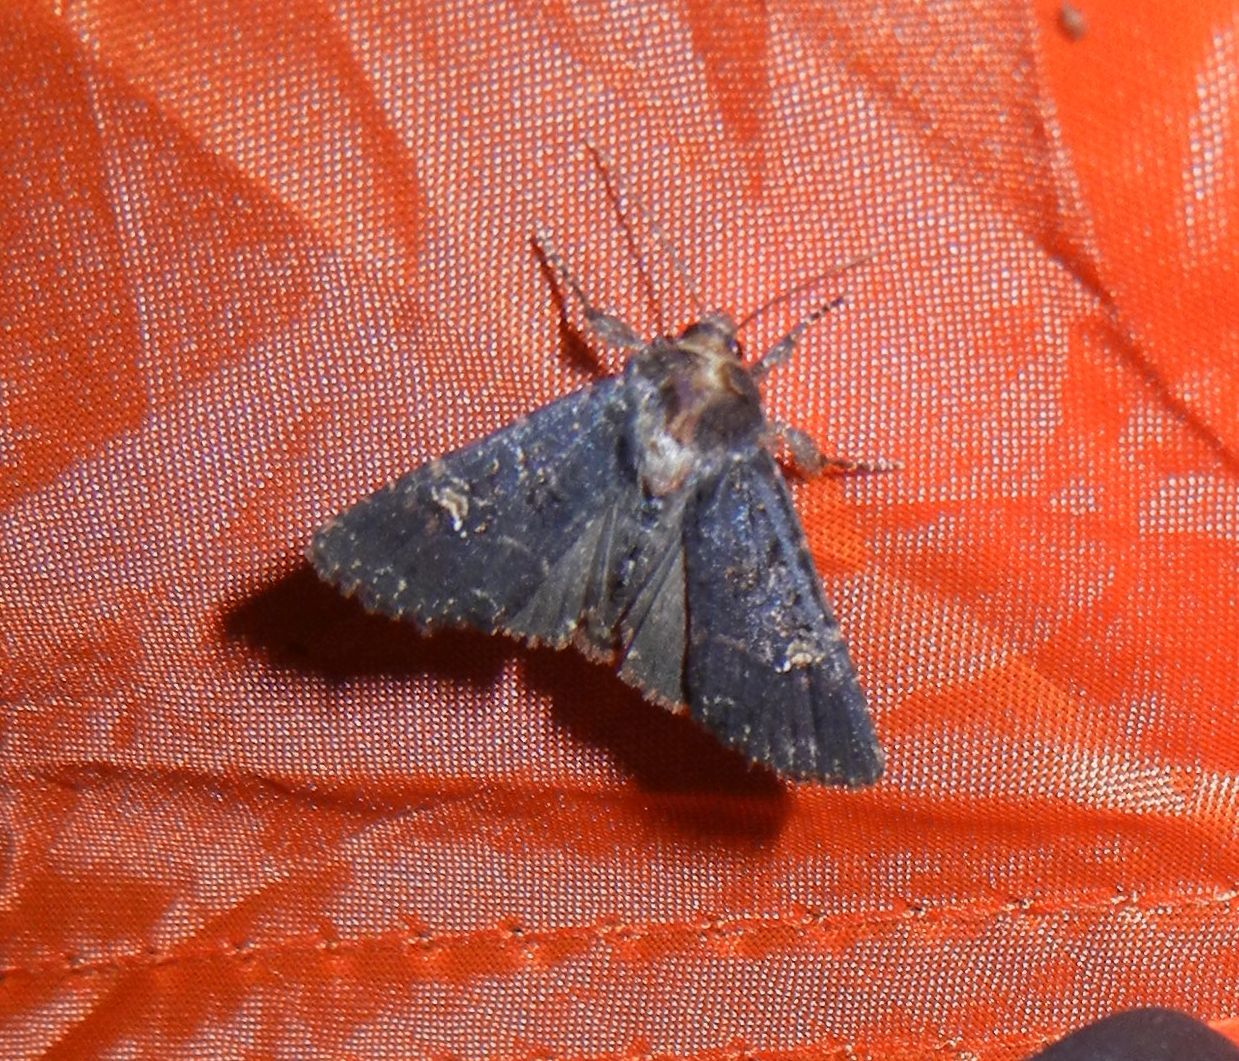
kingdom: Animalia
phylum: Arthropoda
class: Insecta
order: Lepidoptera
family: Noctuidae
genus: Mesapamea
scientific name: Mesapamea
